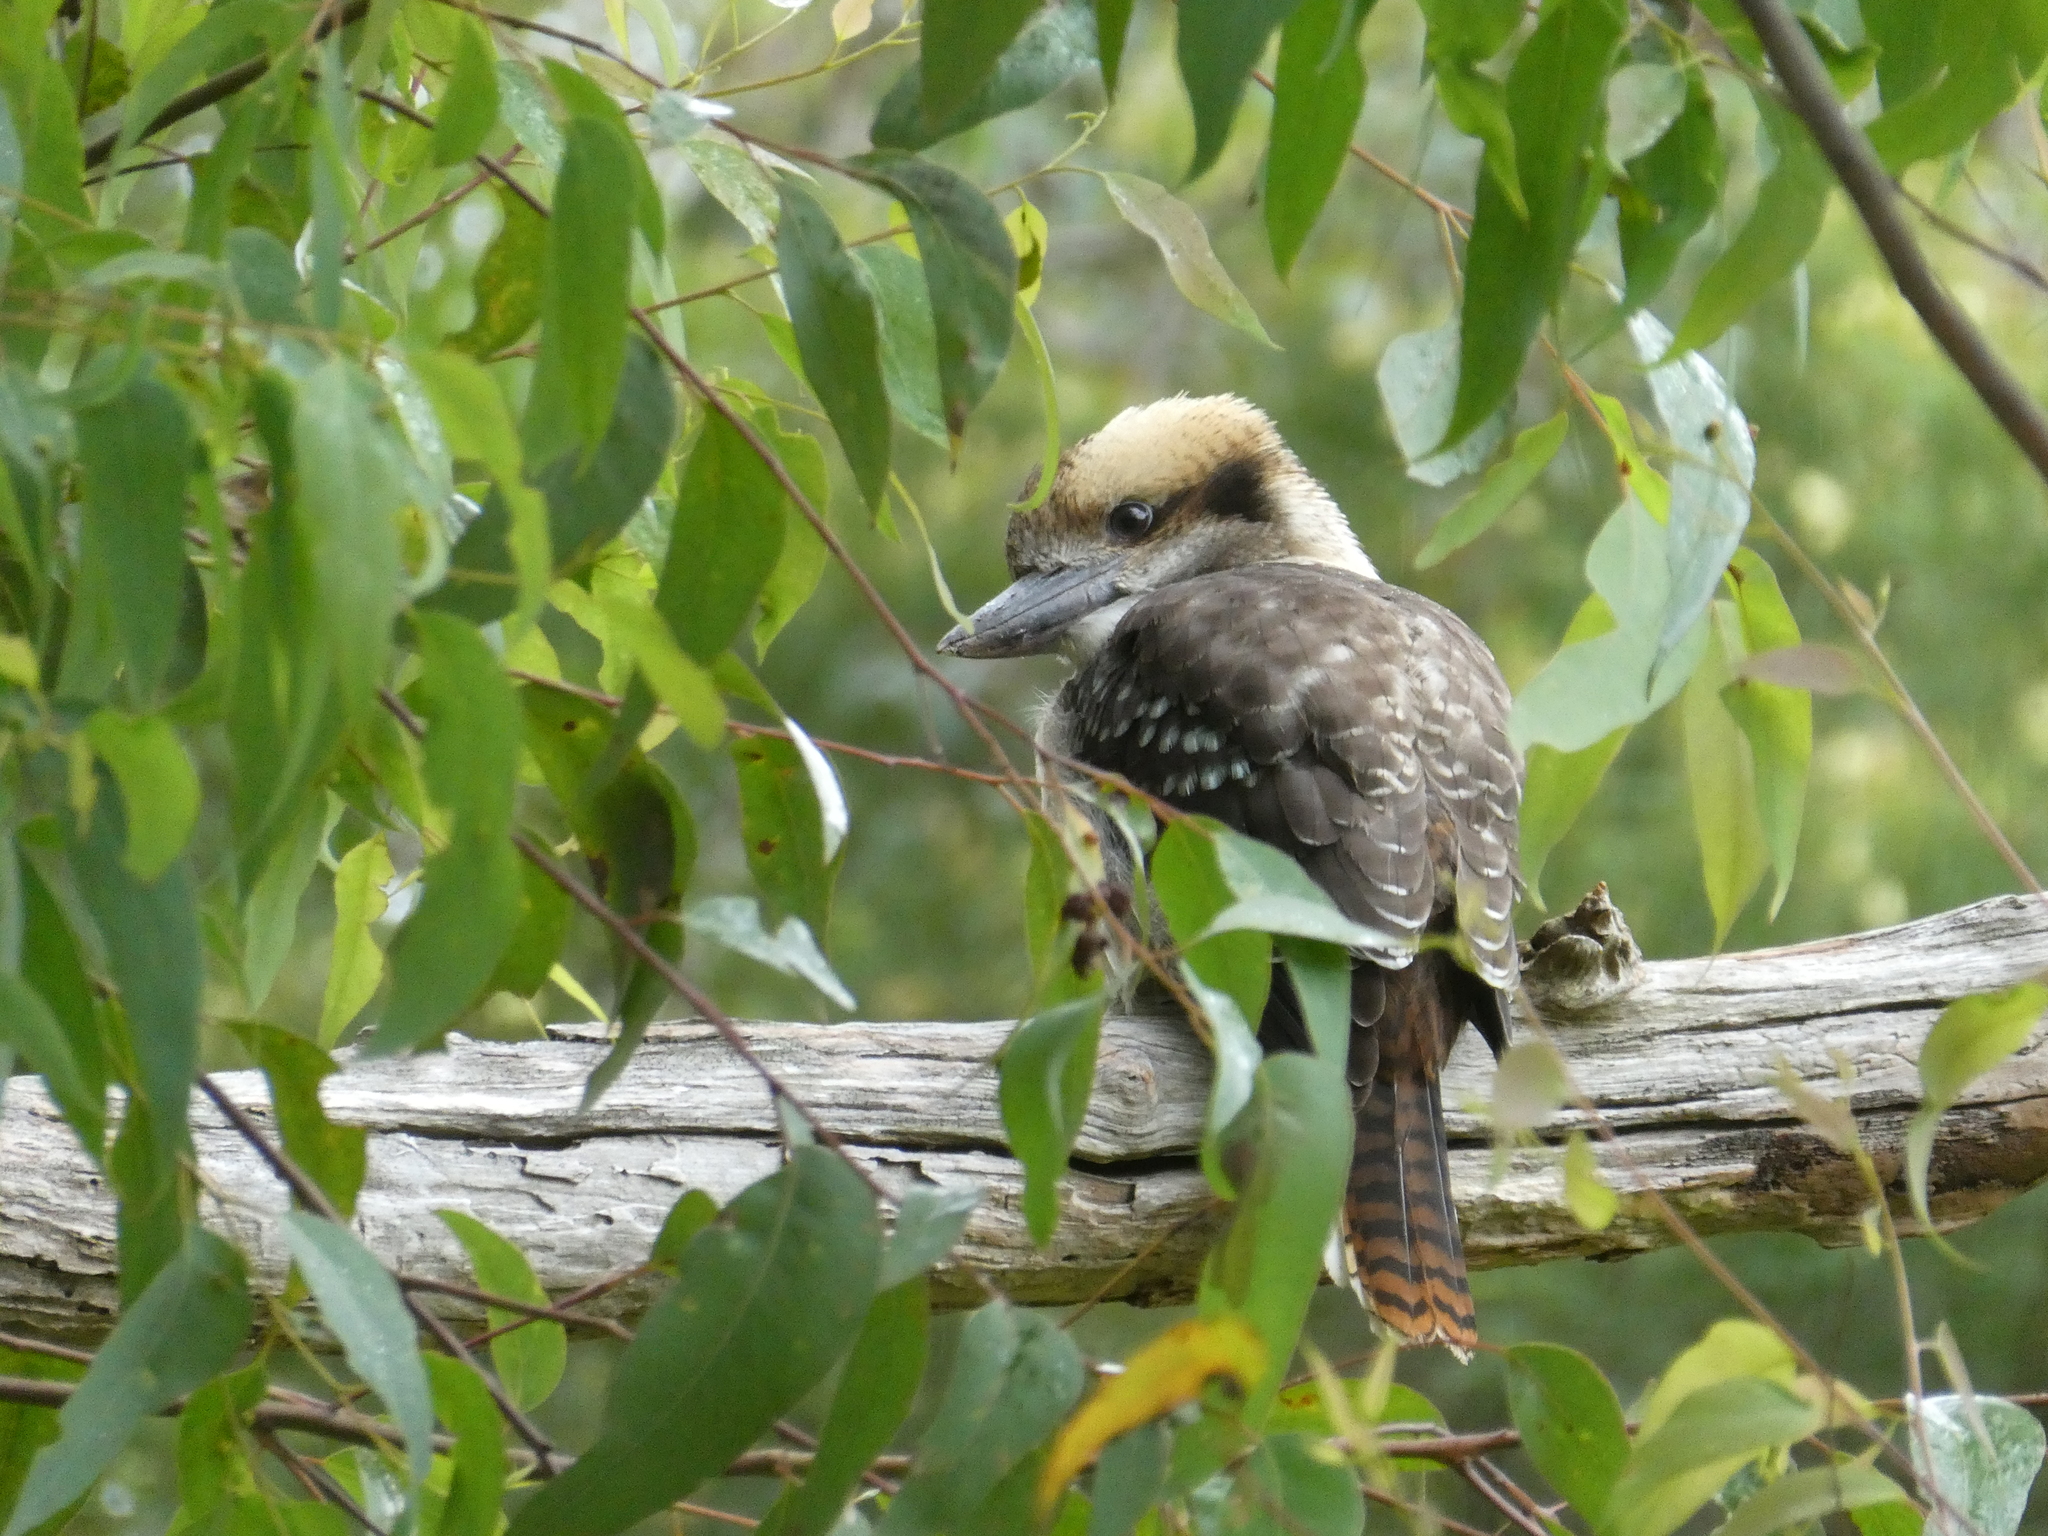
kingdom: Animalia
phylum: Chordata
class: Aves
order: Coraciiformes
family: Alcedinidae
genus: Dacelo
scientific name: Dacelo novaeguineae
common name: Laughing kookaburra
